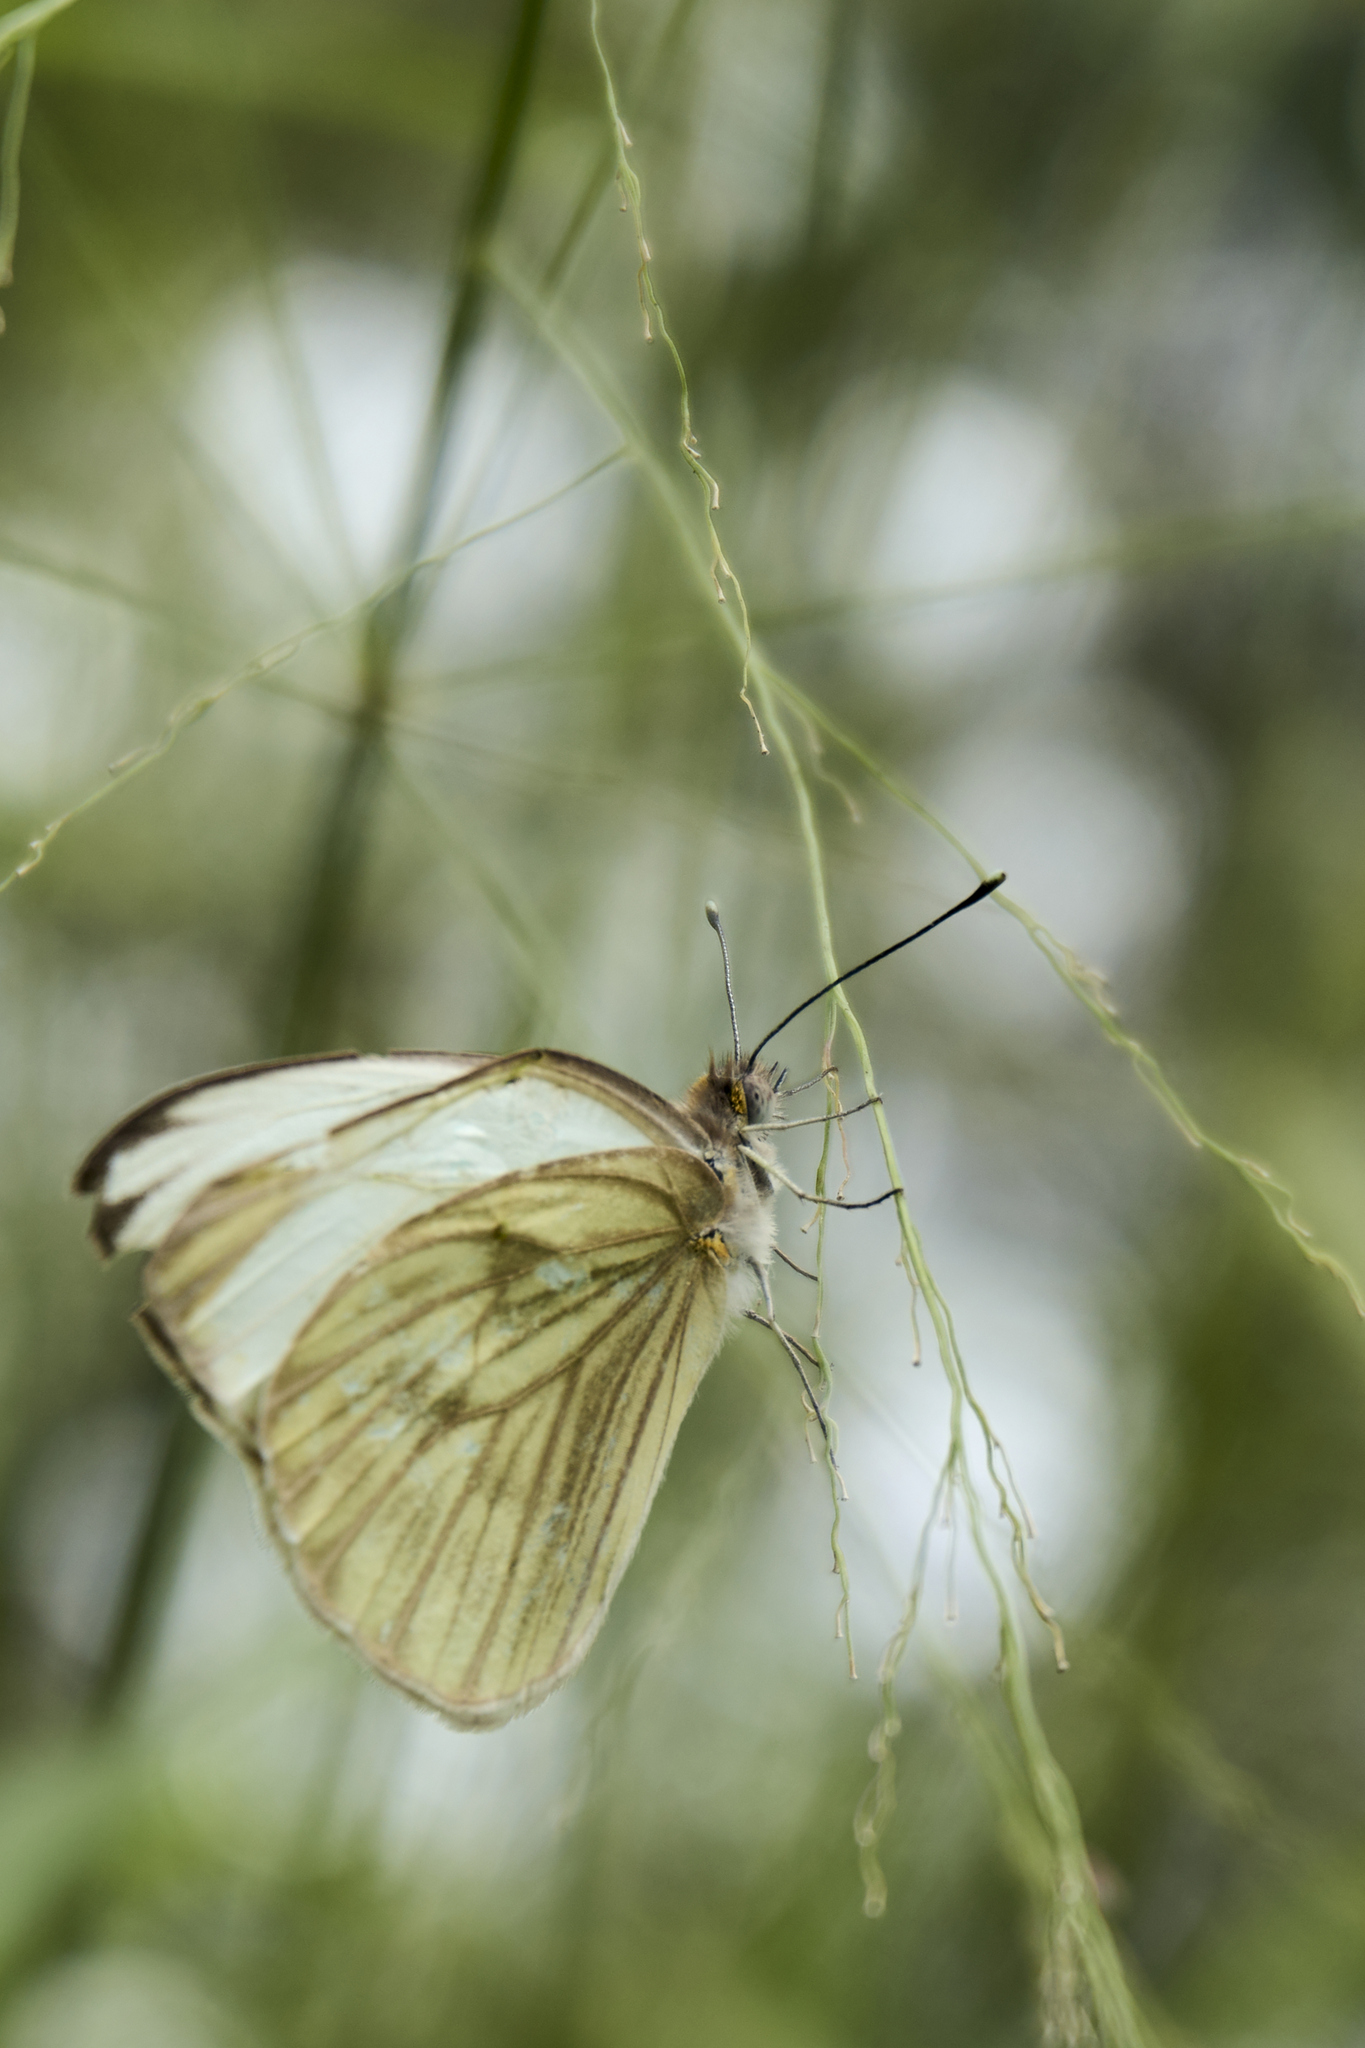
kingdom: Animalia
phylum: Arthropoda
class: Insecta
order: Lepidoptera
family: Pieridae
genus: Ascia
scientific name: Ascia monuste
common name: Great southern white
